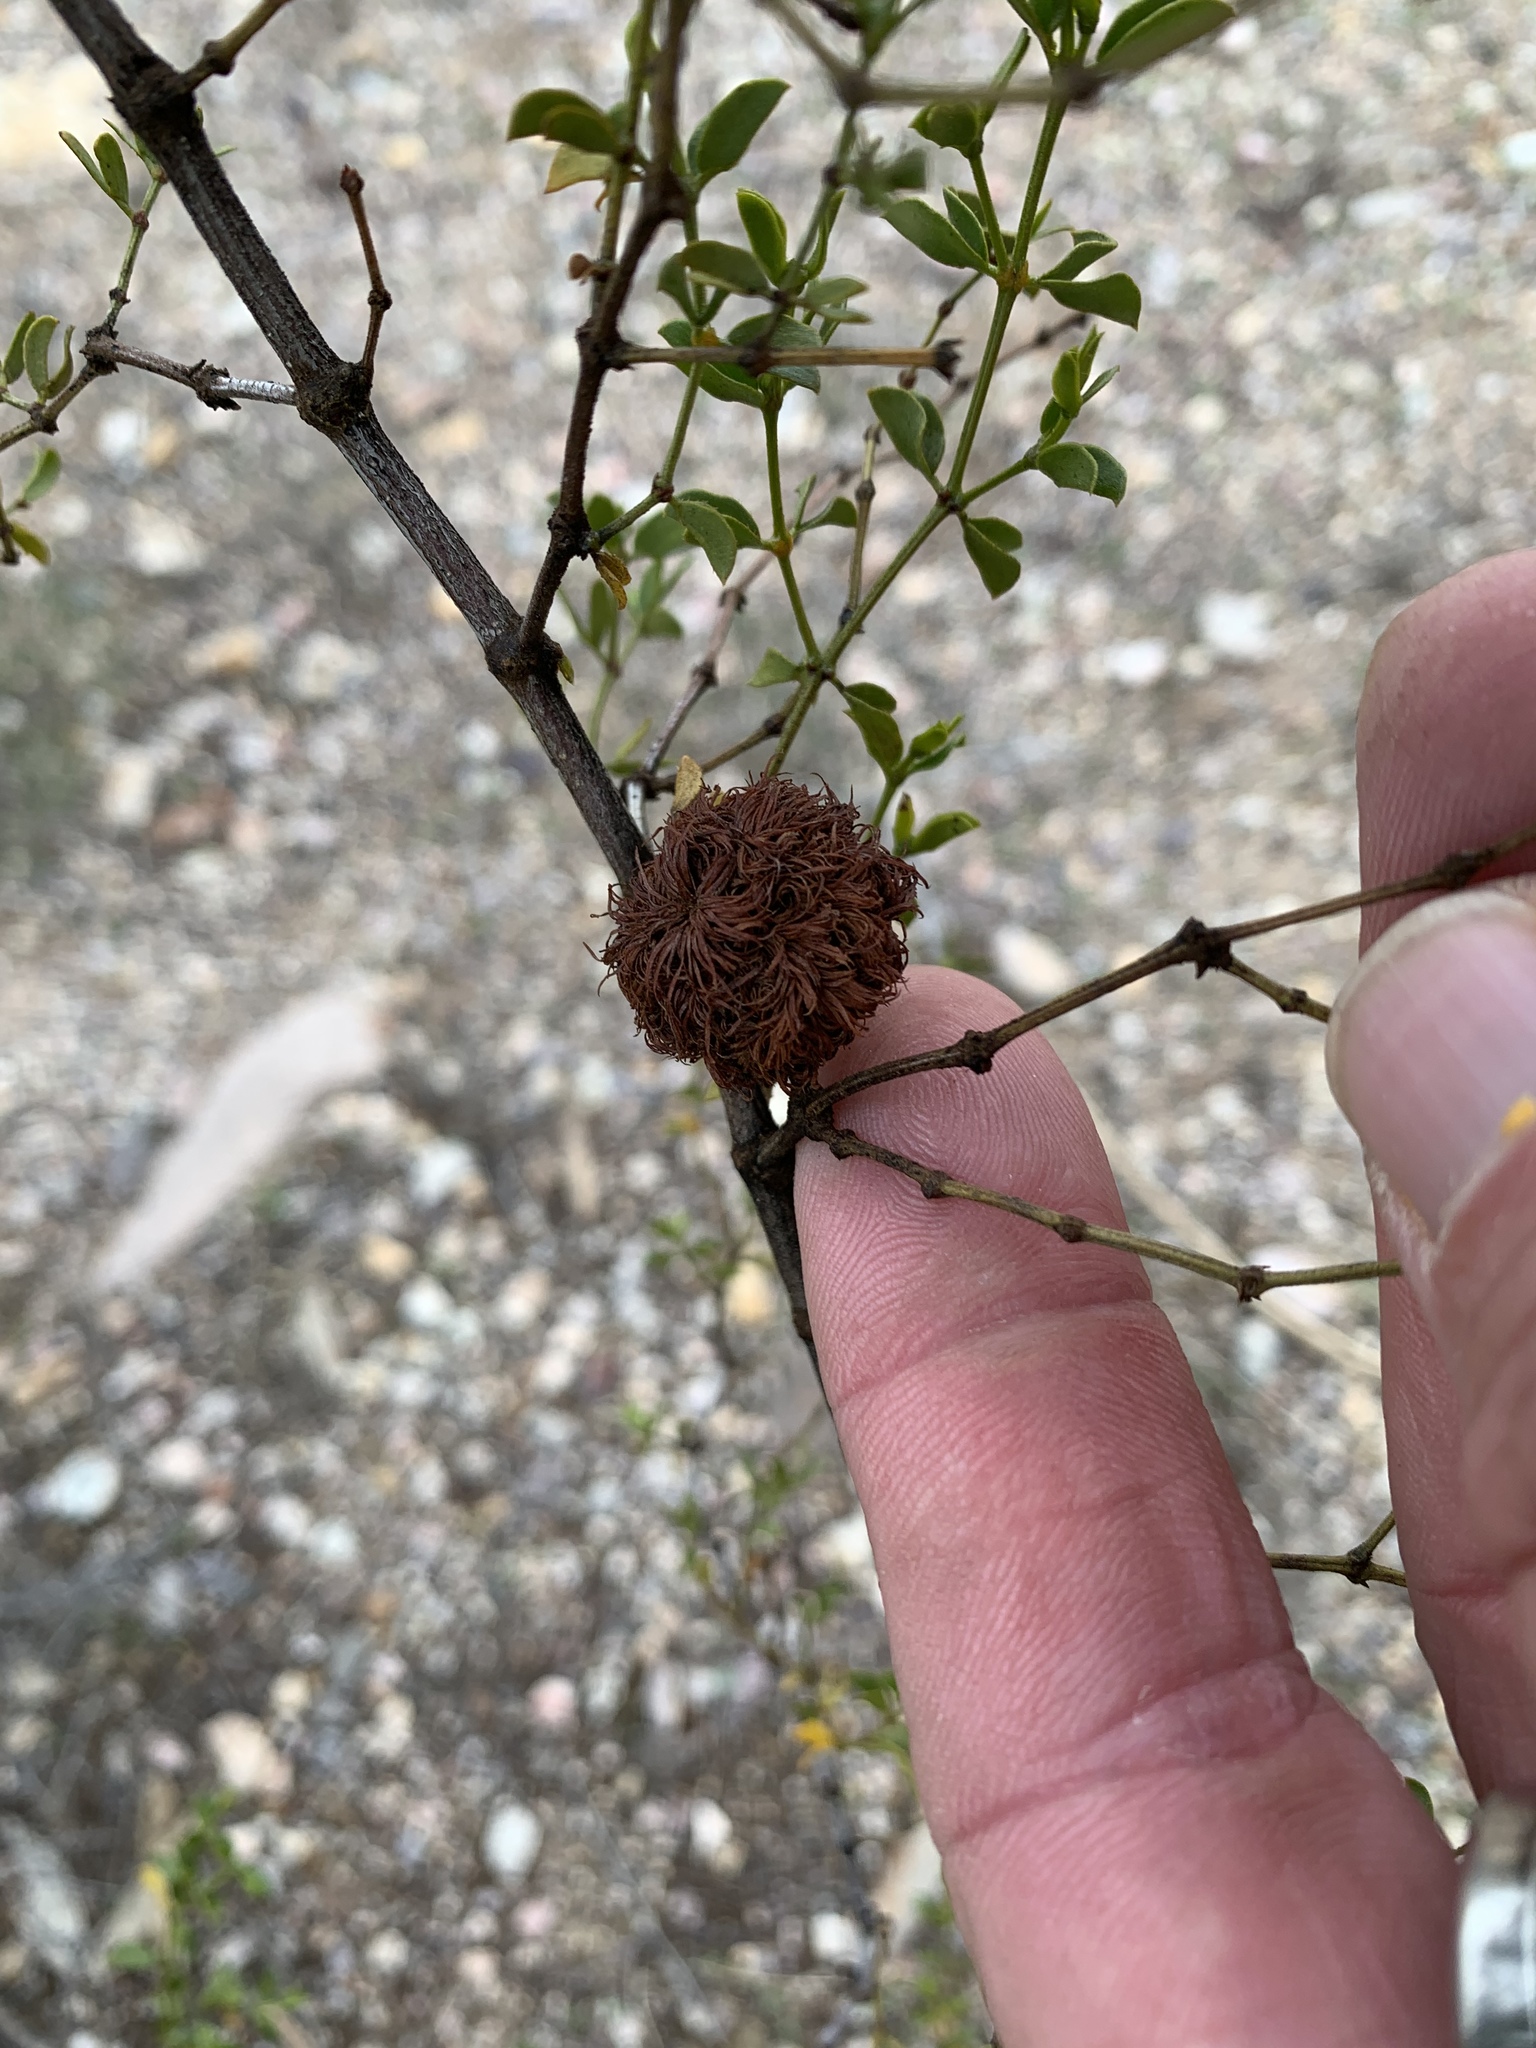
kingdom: Animalia
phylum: Arthropoda
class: Insecta
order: Diptera
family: Cecidomyiidae
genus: Asphondylia
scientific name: Asphondylia auripila
